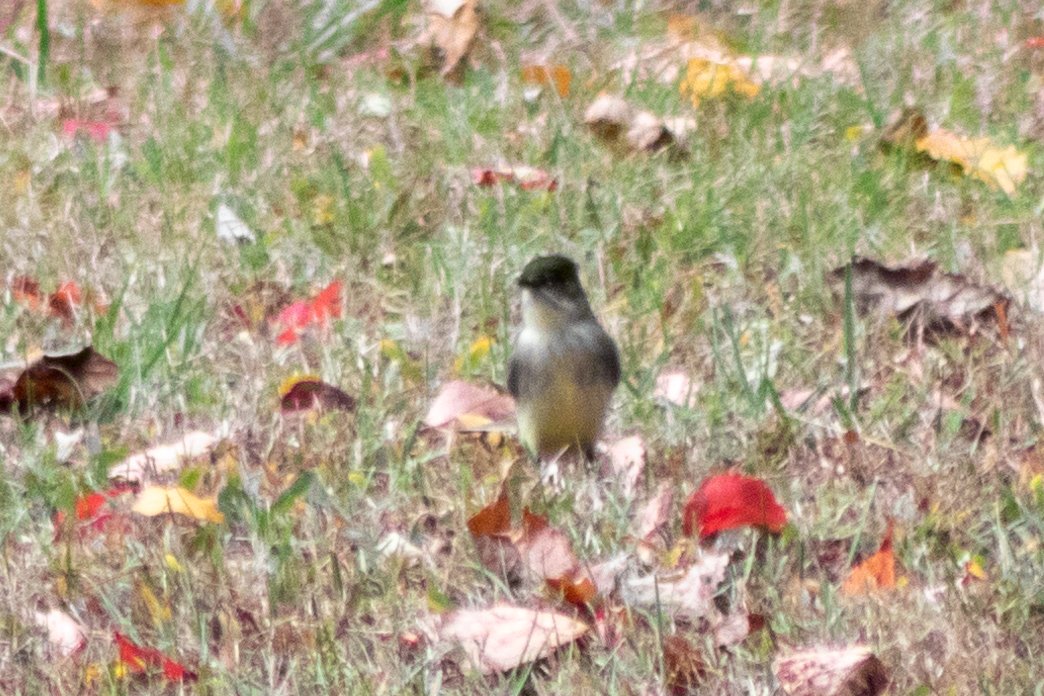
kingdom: Animalia
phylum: Chordata
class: Aves
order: Passeriformes
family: Tyrannidae
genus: Sayornis
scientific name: Sayornis phoebe
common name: Eastern phoebe
